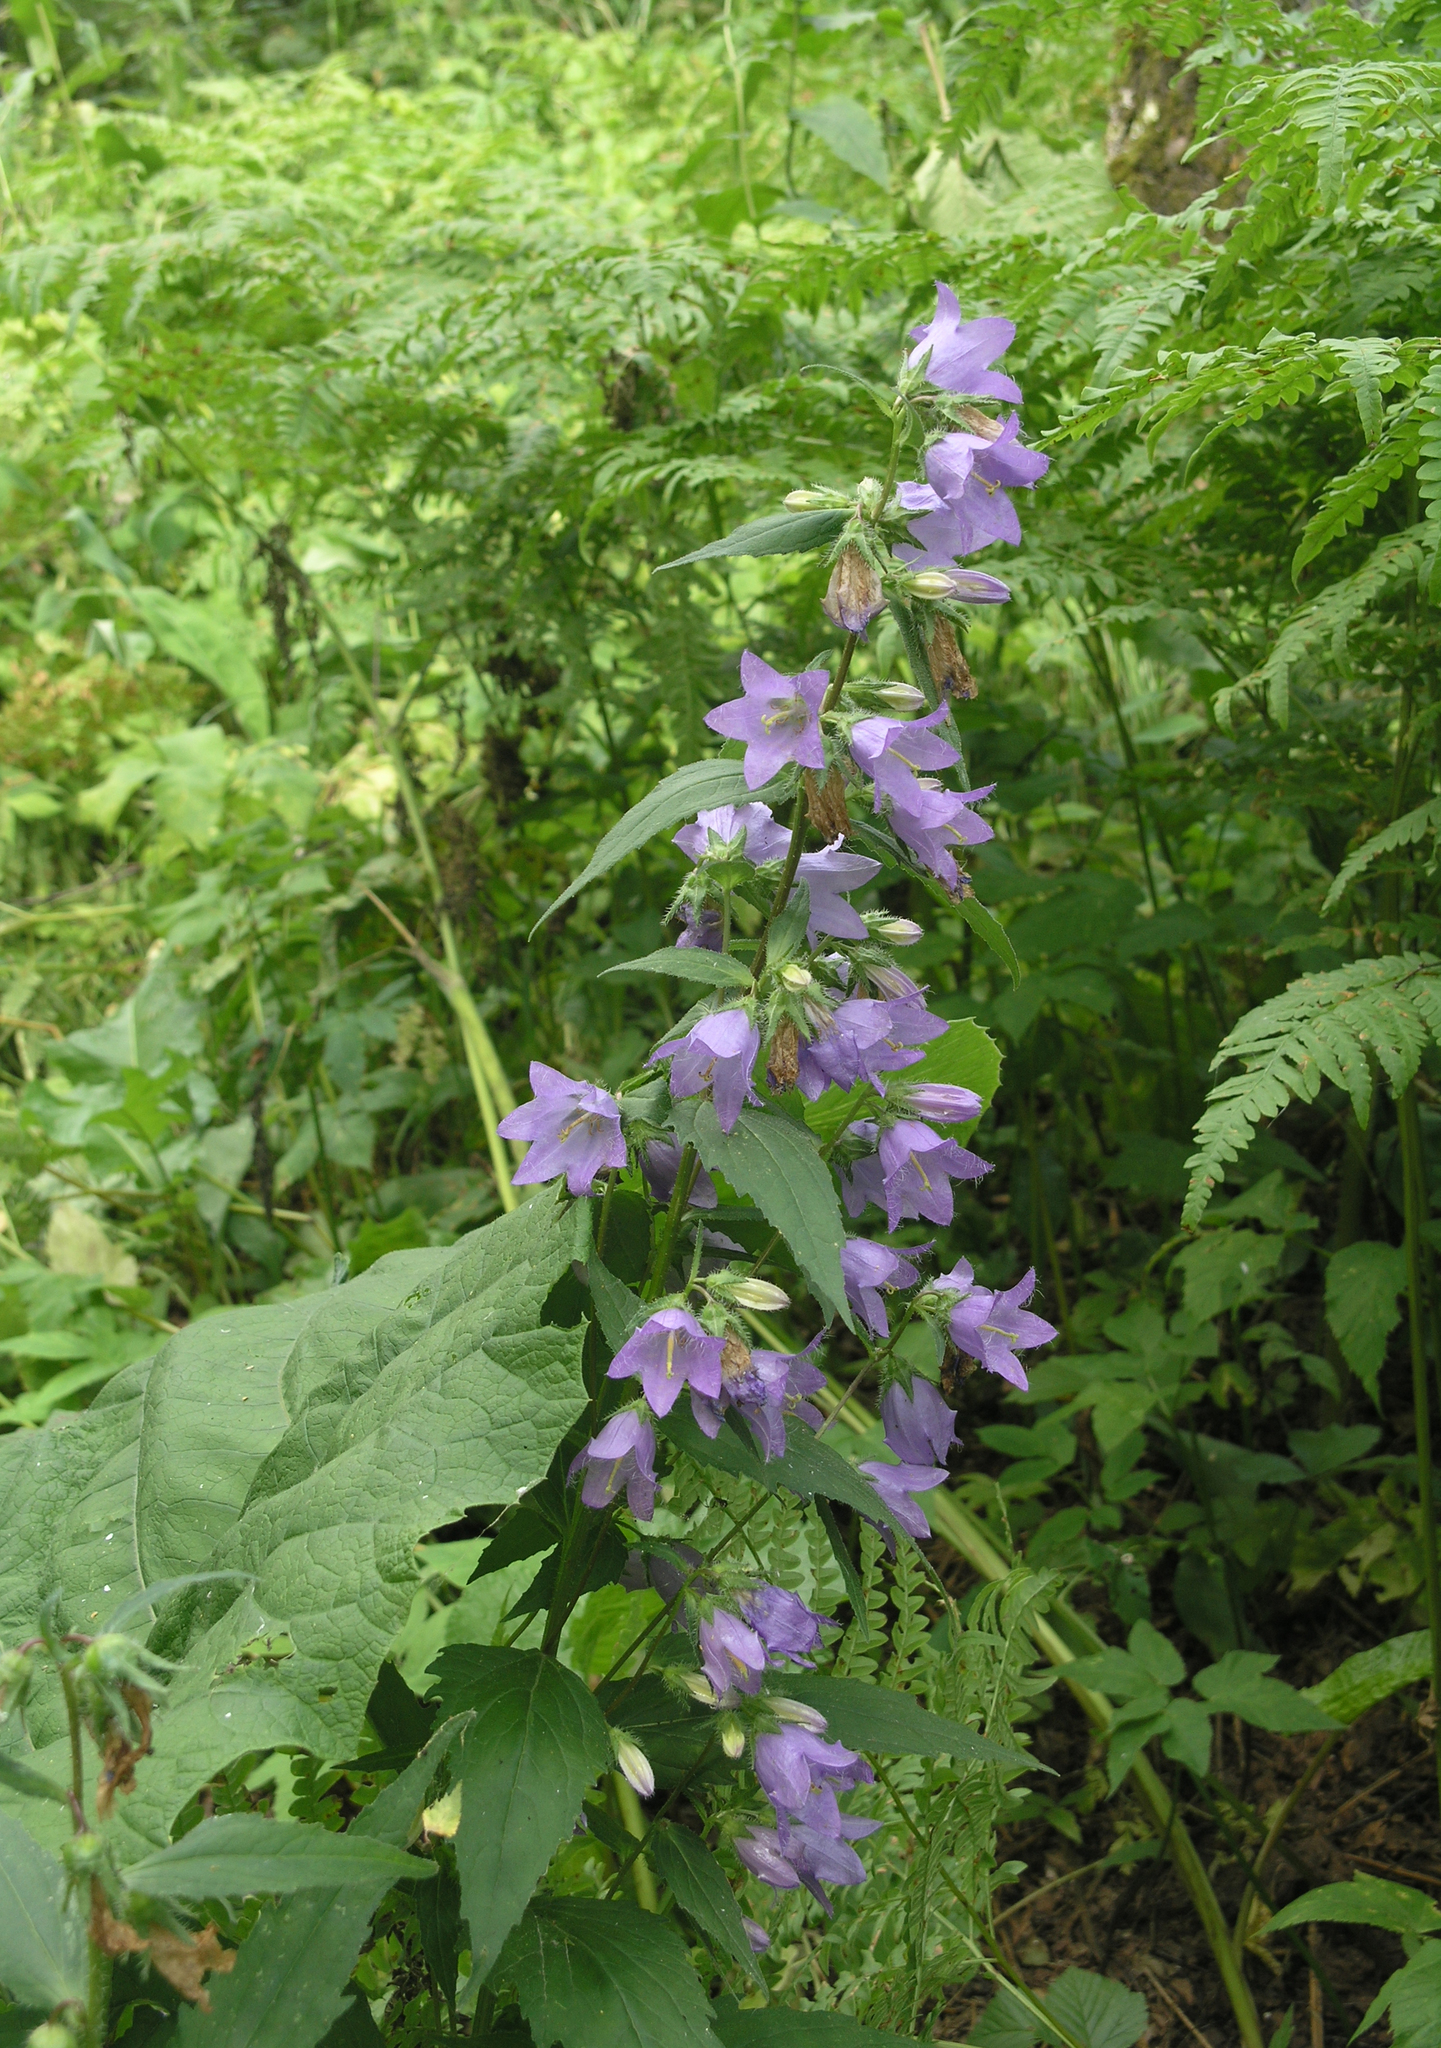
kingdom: Plantae
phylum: Tracheophyta
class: Magnoliopsida
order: Asterales
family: Campanulaceae
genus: Campanula
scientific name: Campanula trachelium
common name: Nettle-leaved bellflower
